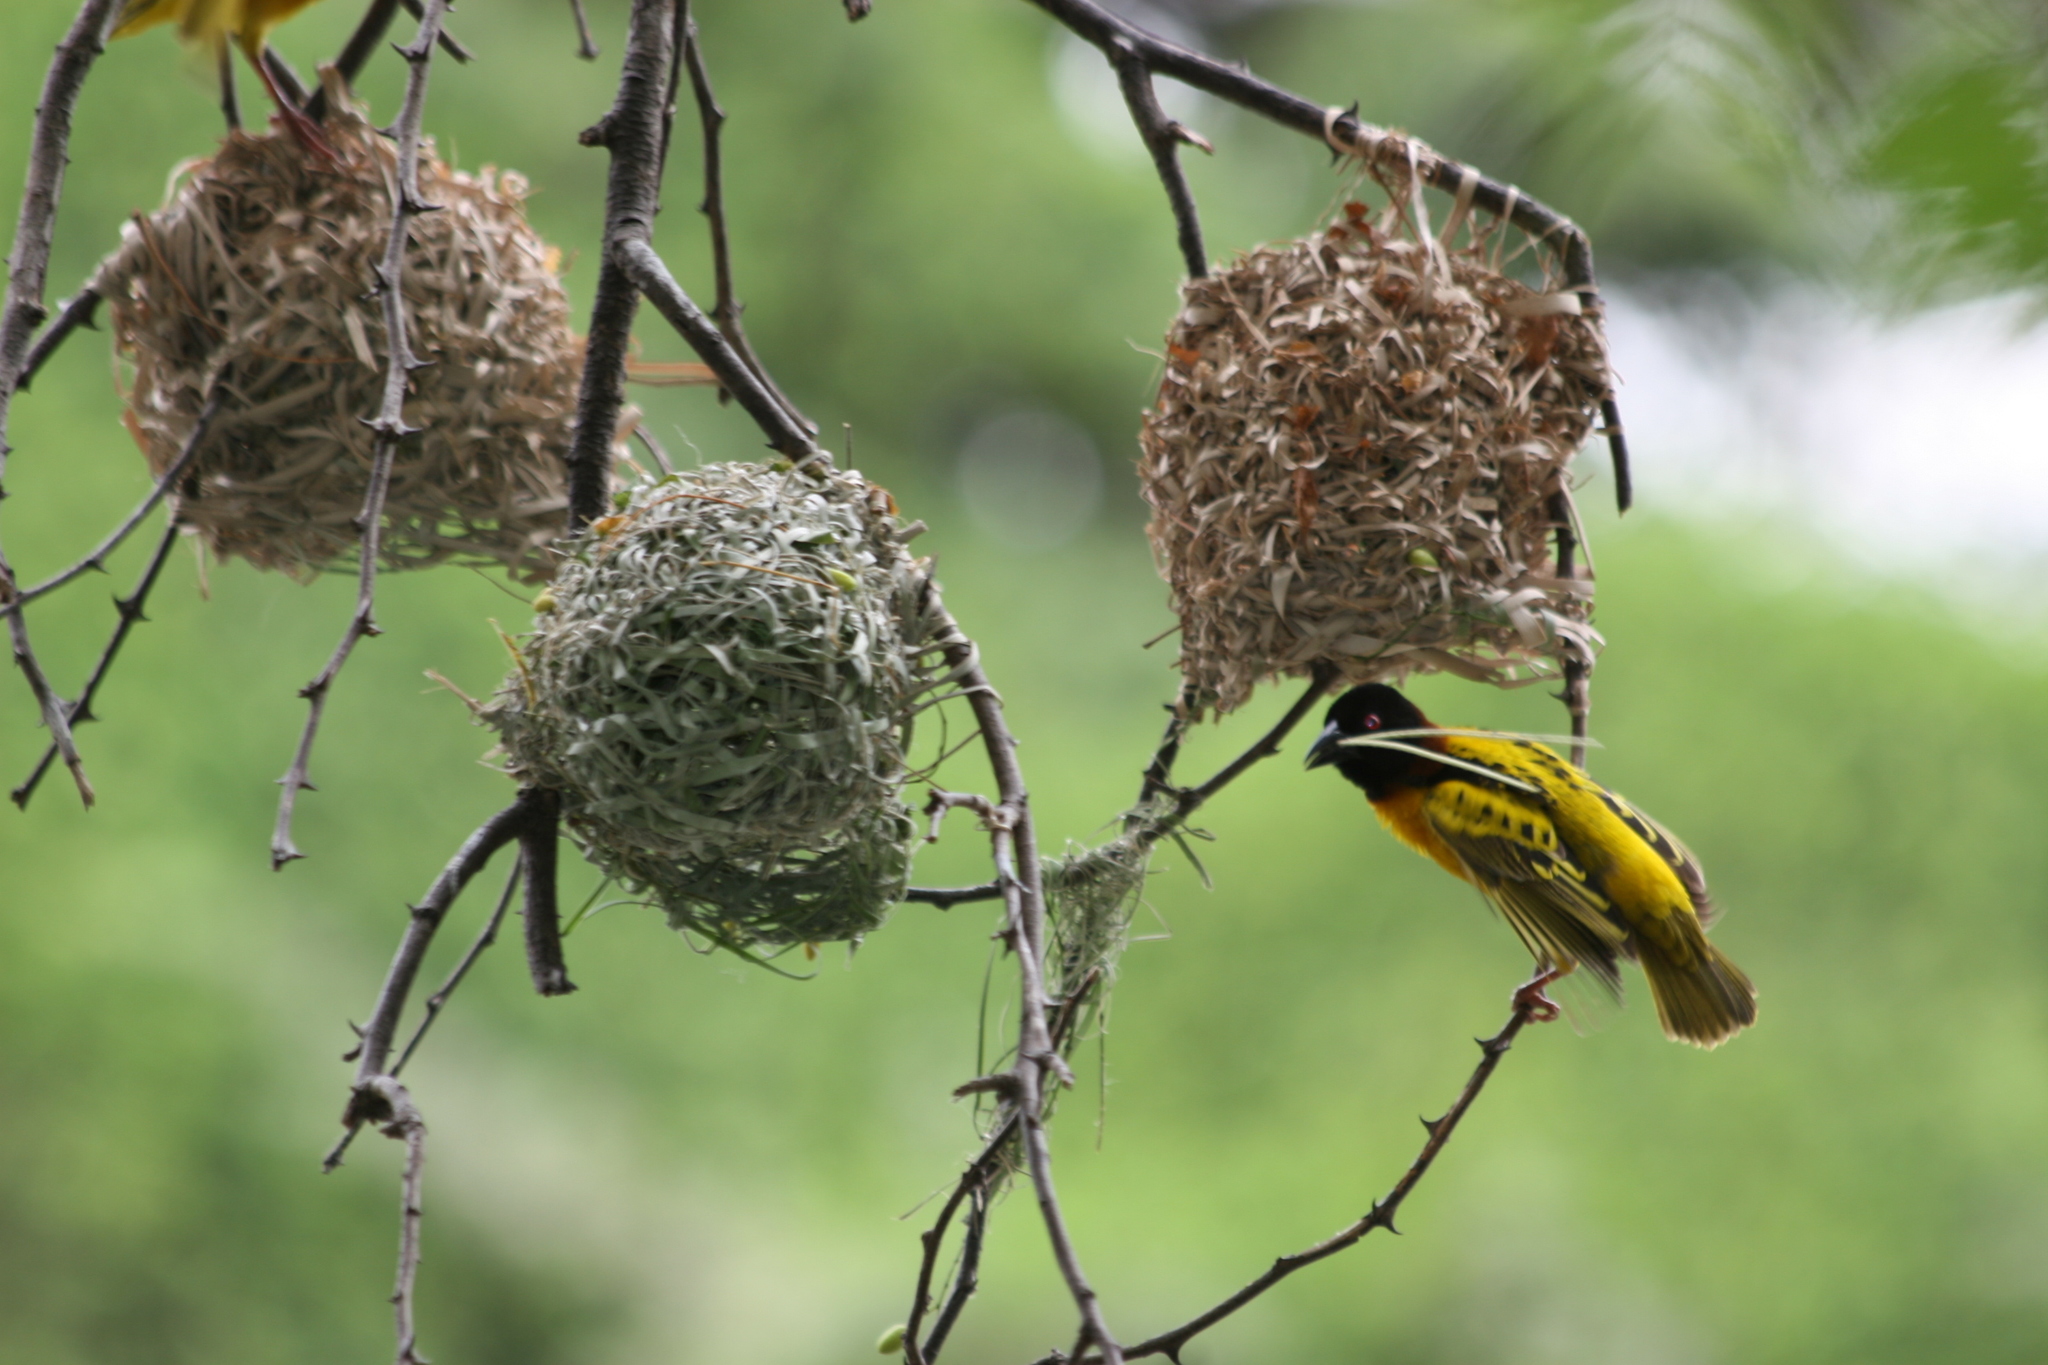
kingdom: Animalia
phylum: Chordata
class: Aves
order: Passeriformes
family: Ploceidae
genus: Ploceus
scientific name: Ploceus cucullatus
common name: Village weaver
